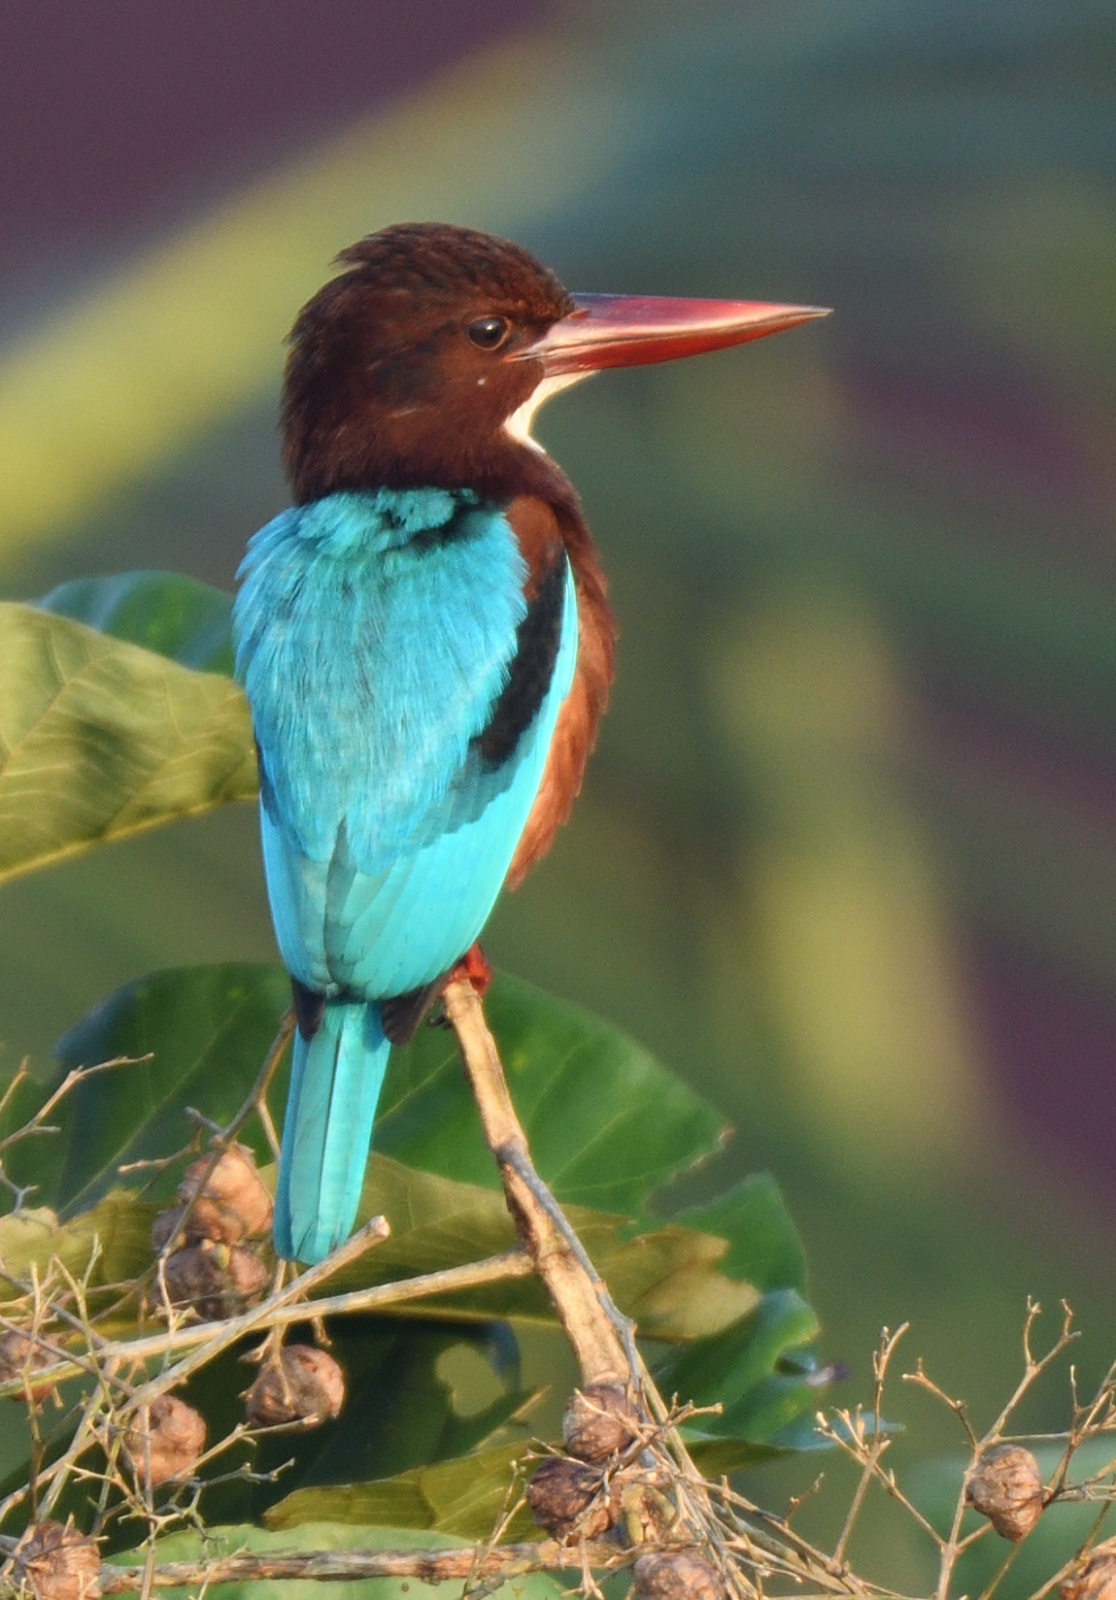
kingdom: Animalia
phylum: Chordata
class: Aves
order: Coraciiformes
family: Alcedinidae
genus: Halcyon
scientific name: Halcyon smyrnensis
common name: White-throated kingfisher
